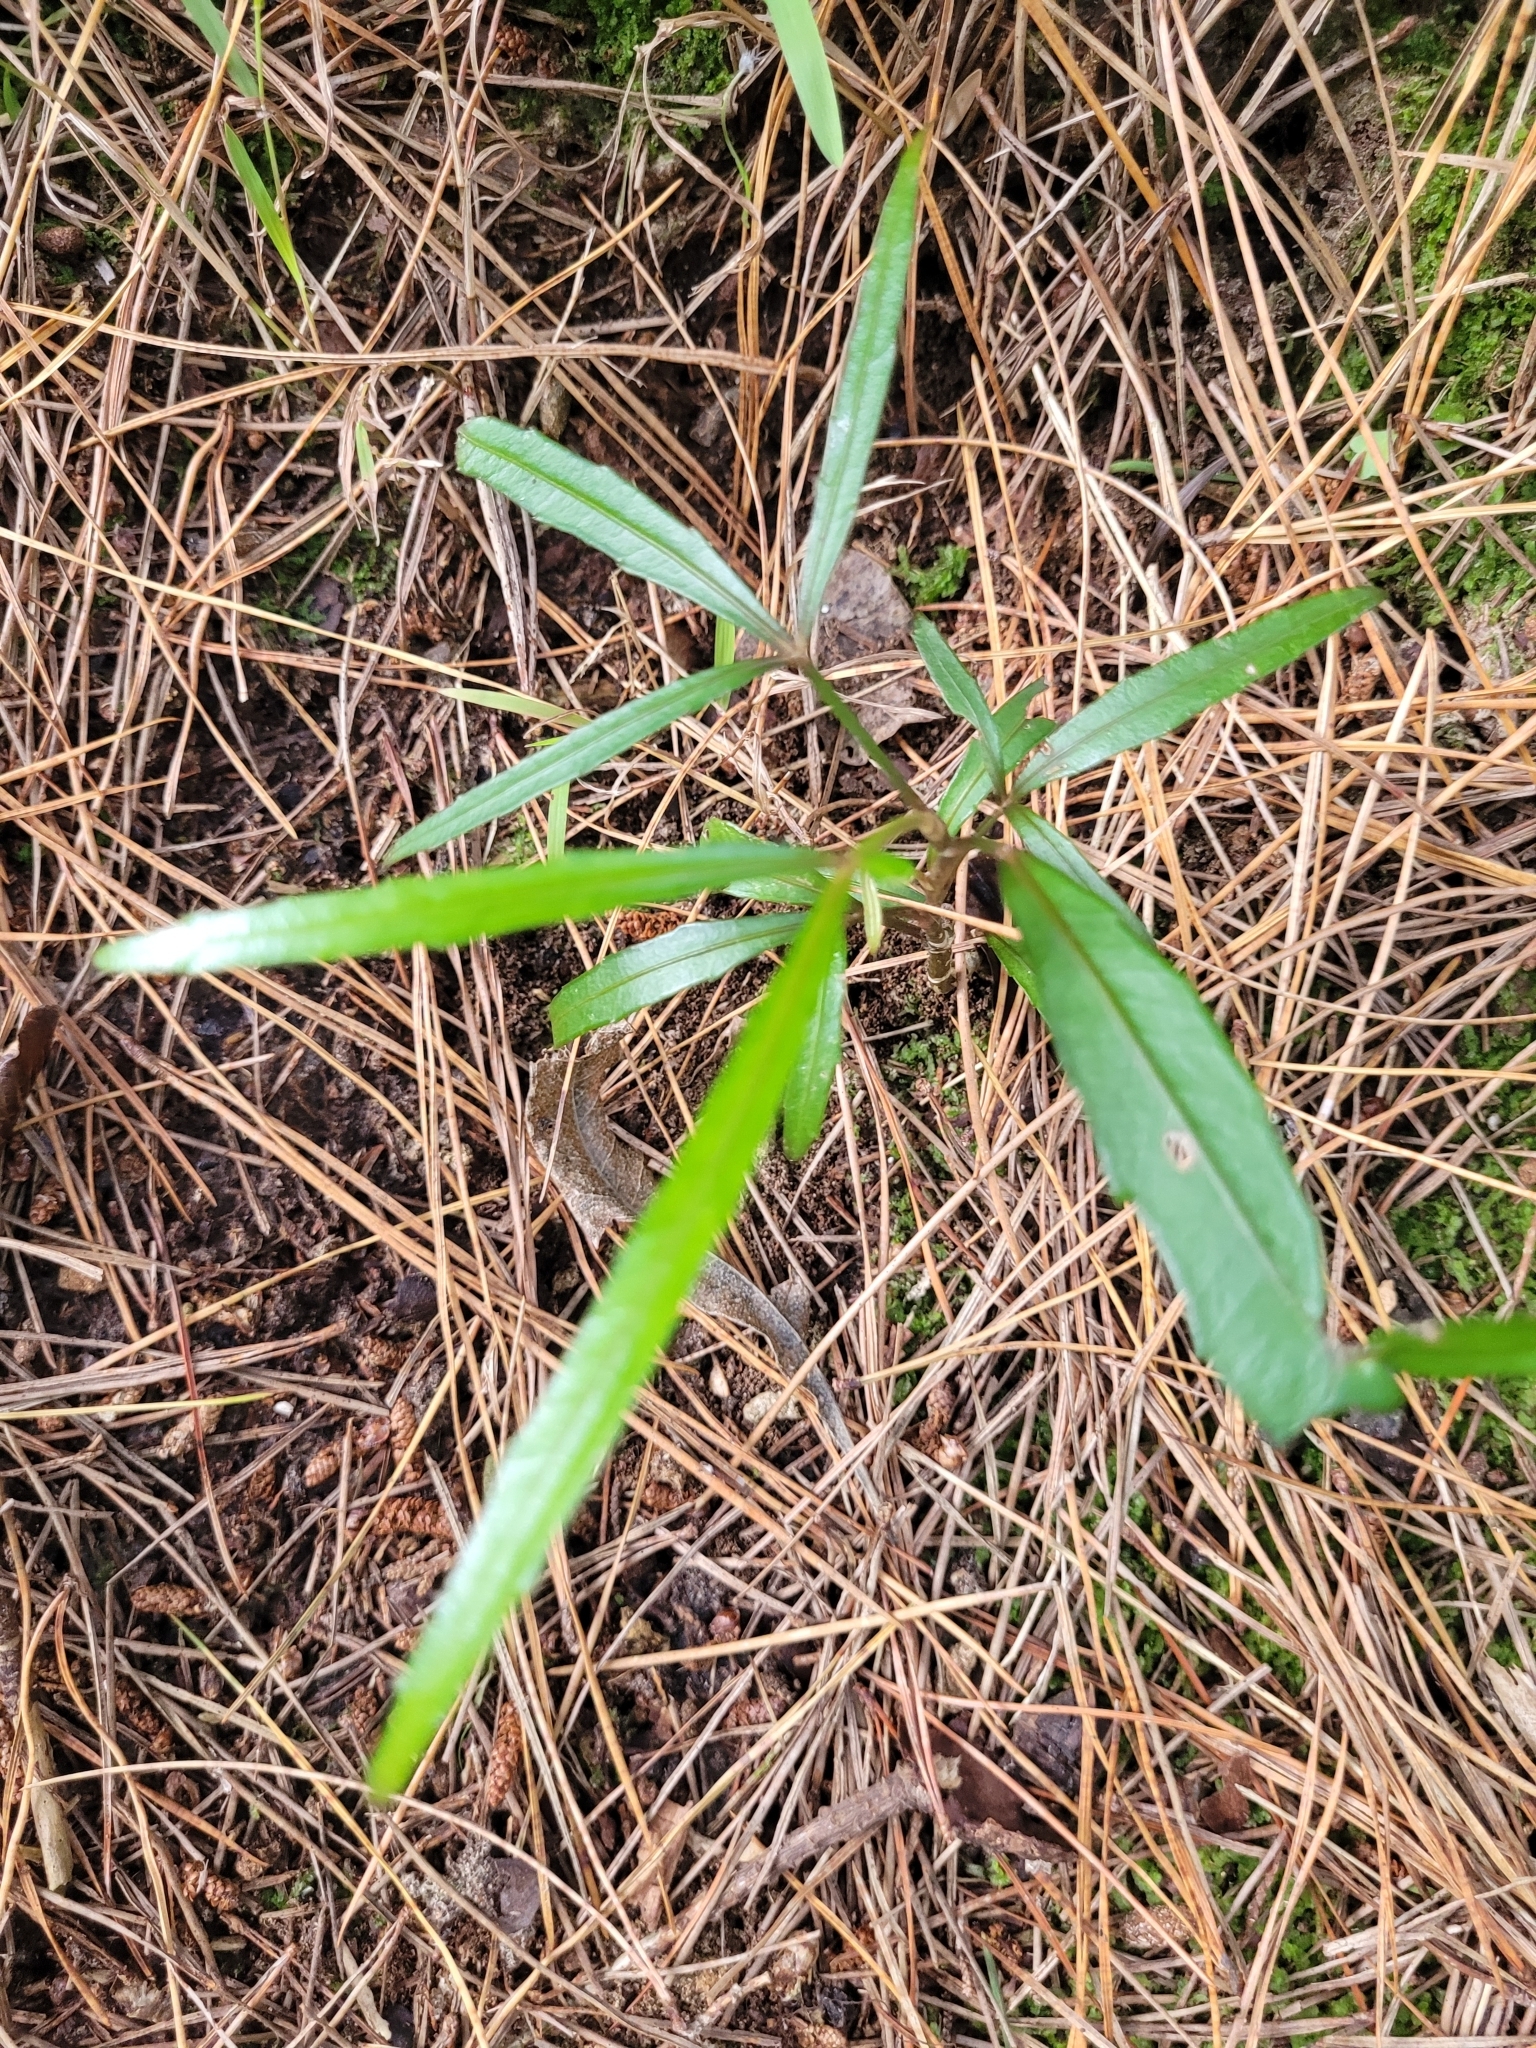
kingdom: Plantae
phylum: Tracheophyta
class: Magnoliopsida
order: Apiales
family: Araliaceae
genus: Pseudopanax
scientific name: Pseudopanax
